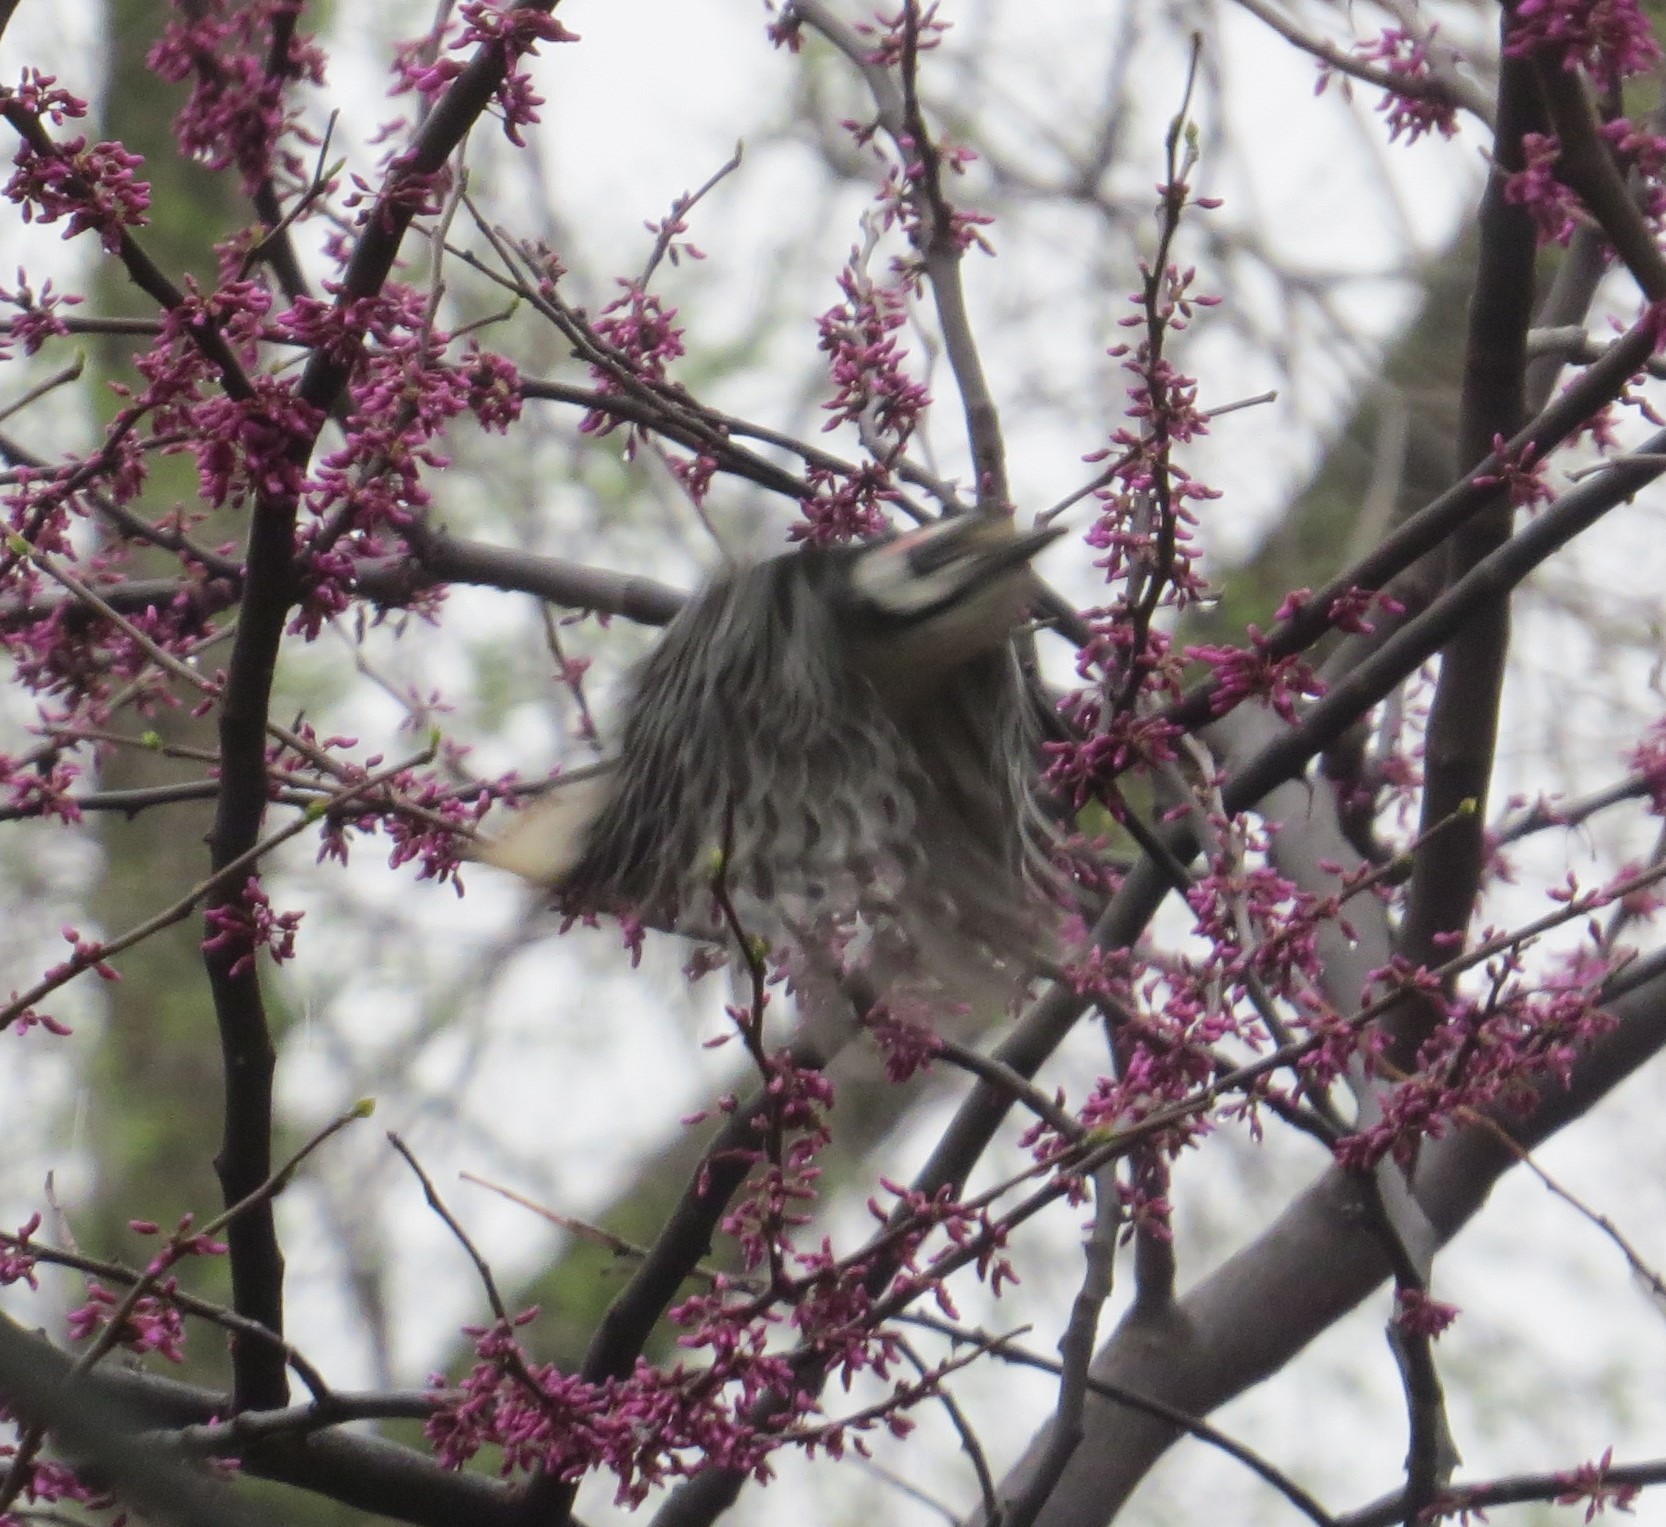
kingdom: Animalia
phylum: Chordata
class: Aves
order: Piciformes
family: Picidae
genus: Leuconotopicus
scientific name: Leuconotopicus villosus
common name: Hairy woodpecker
